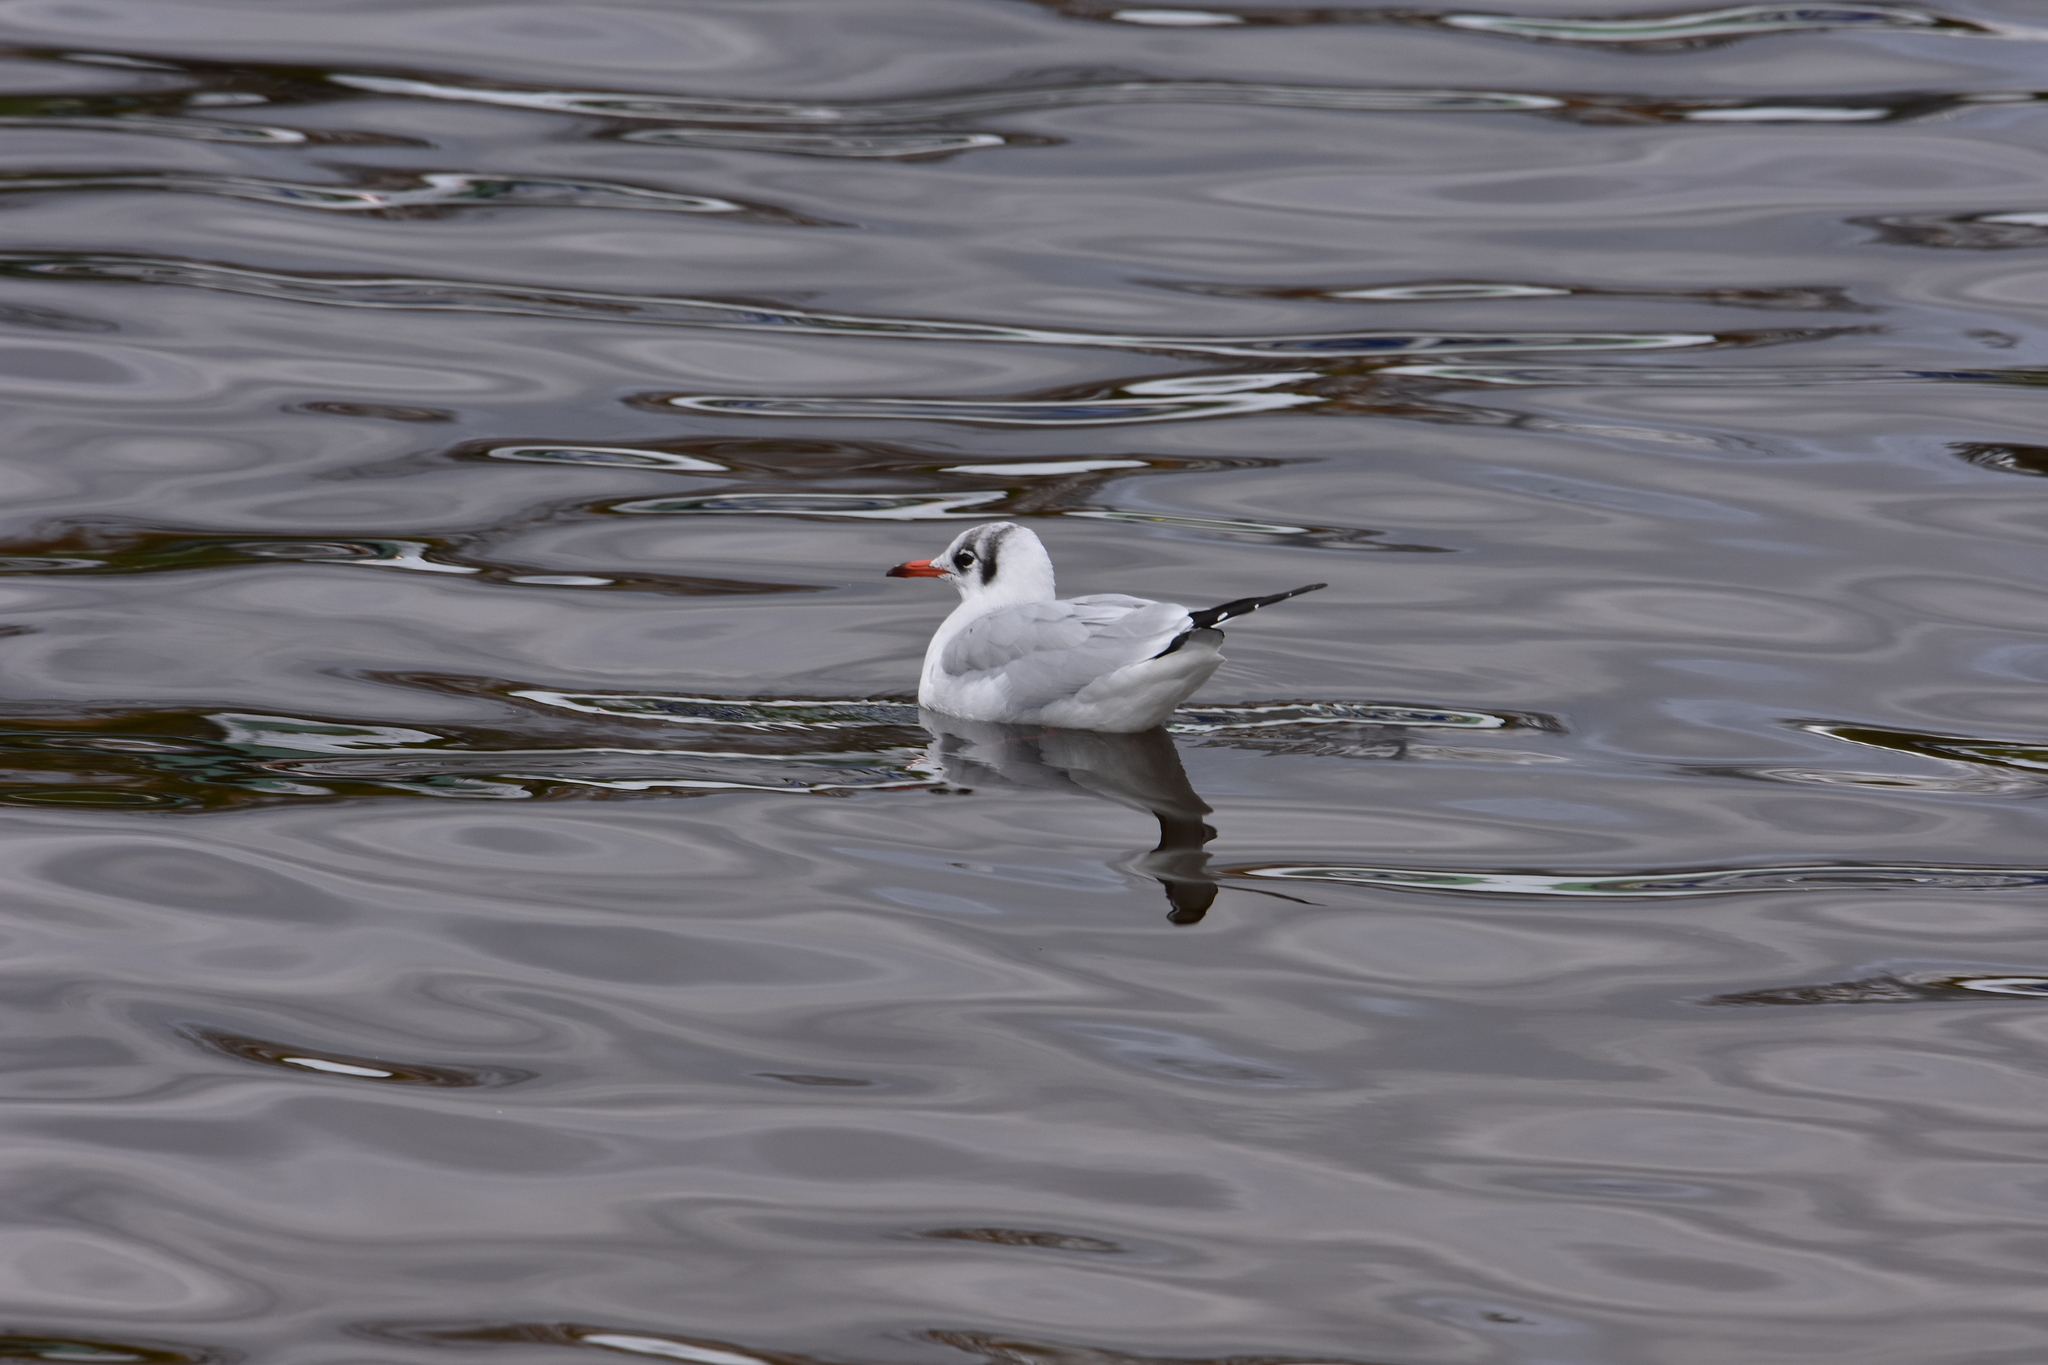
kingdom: Animalia
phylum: Chordata
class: Aves
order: Charadriiformes
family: Laridae
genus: Chroicocephalus
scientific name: Chroicocephalus ridibundus
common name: Black-headed gull
